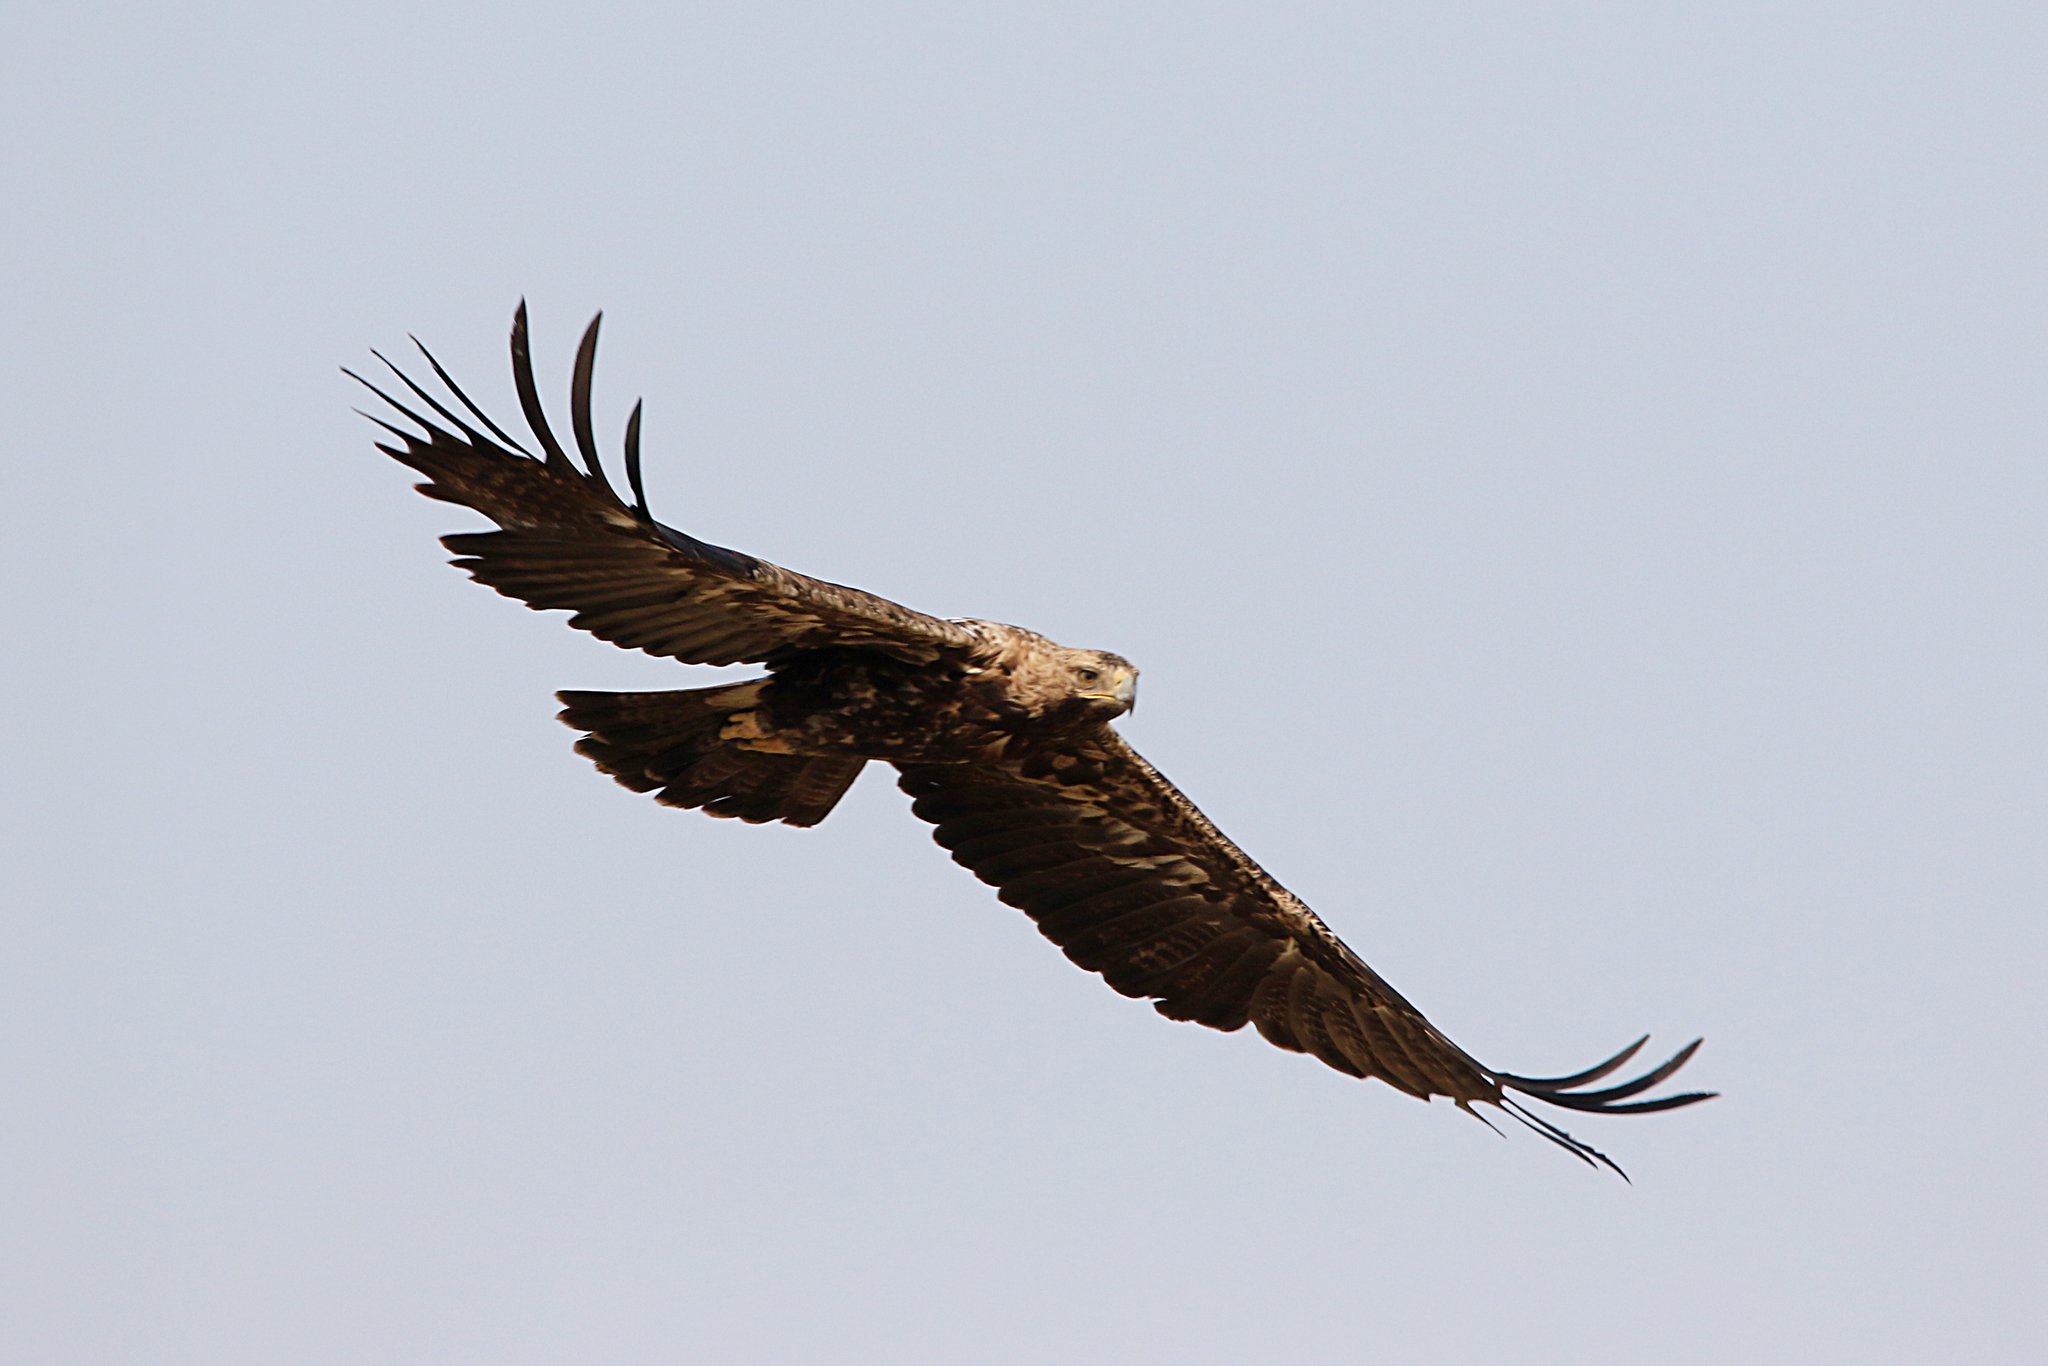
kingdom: Animalia
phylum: Chordata
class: Aves
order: Accipitriformes
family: Accipitridae
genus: Aquila
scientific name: Aquila heliaca
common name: Eastern imperial eagle
